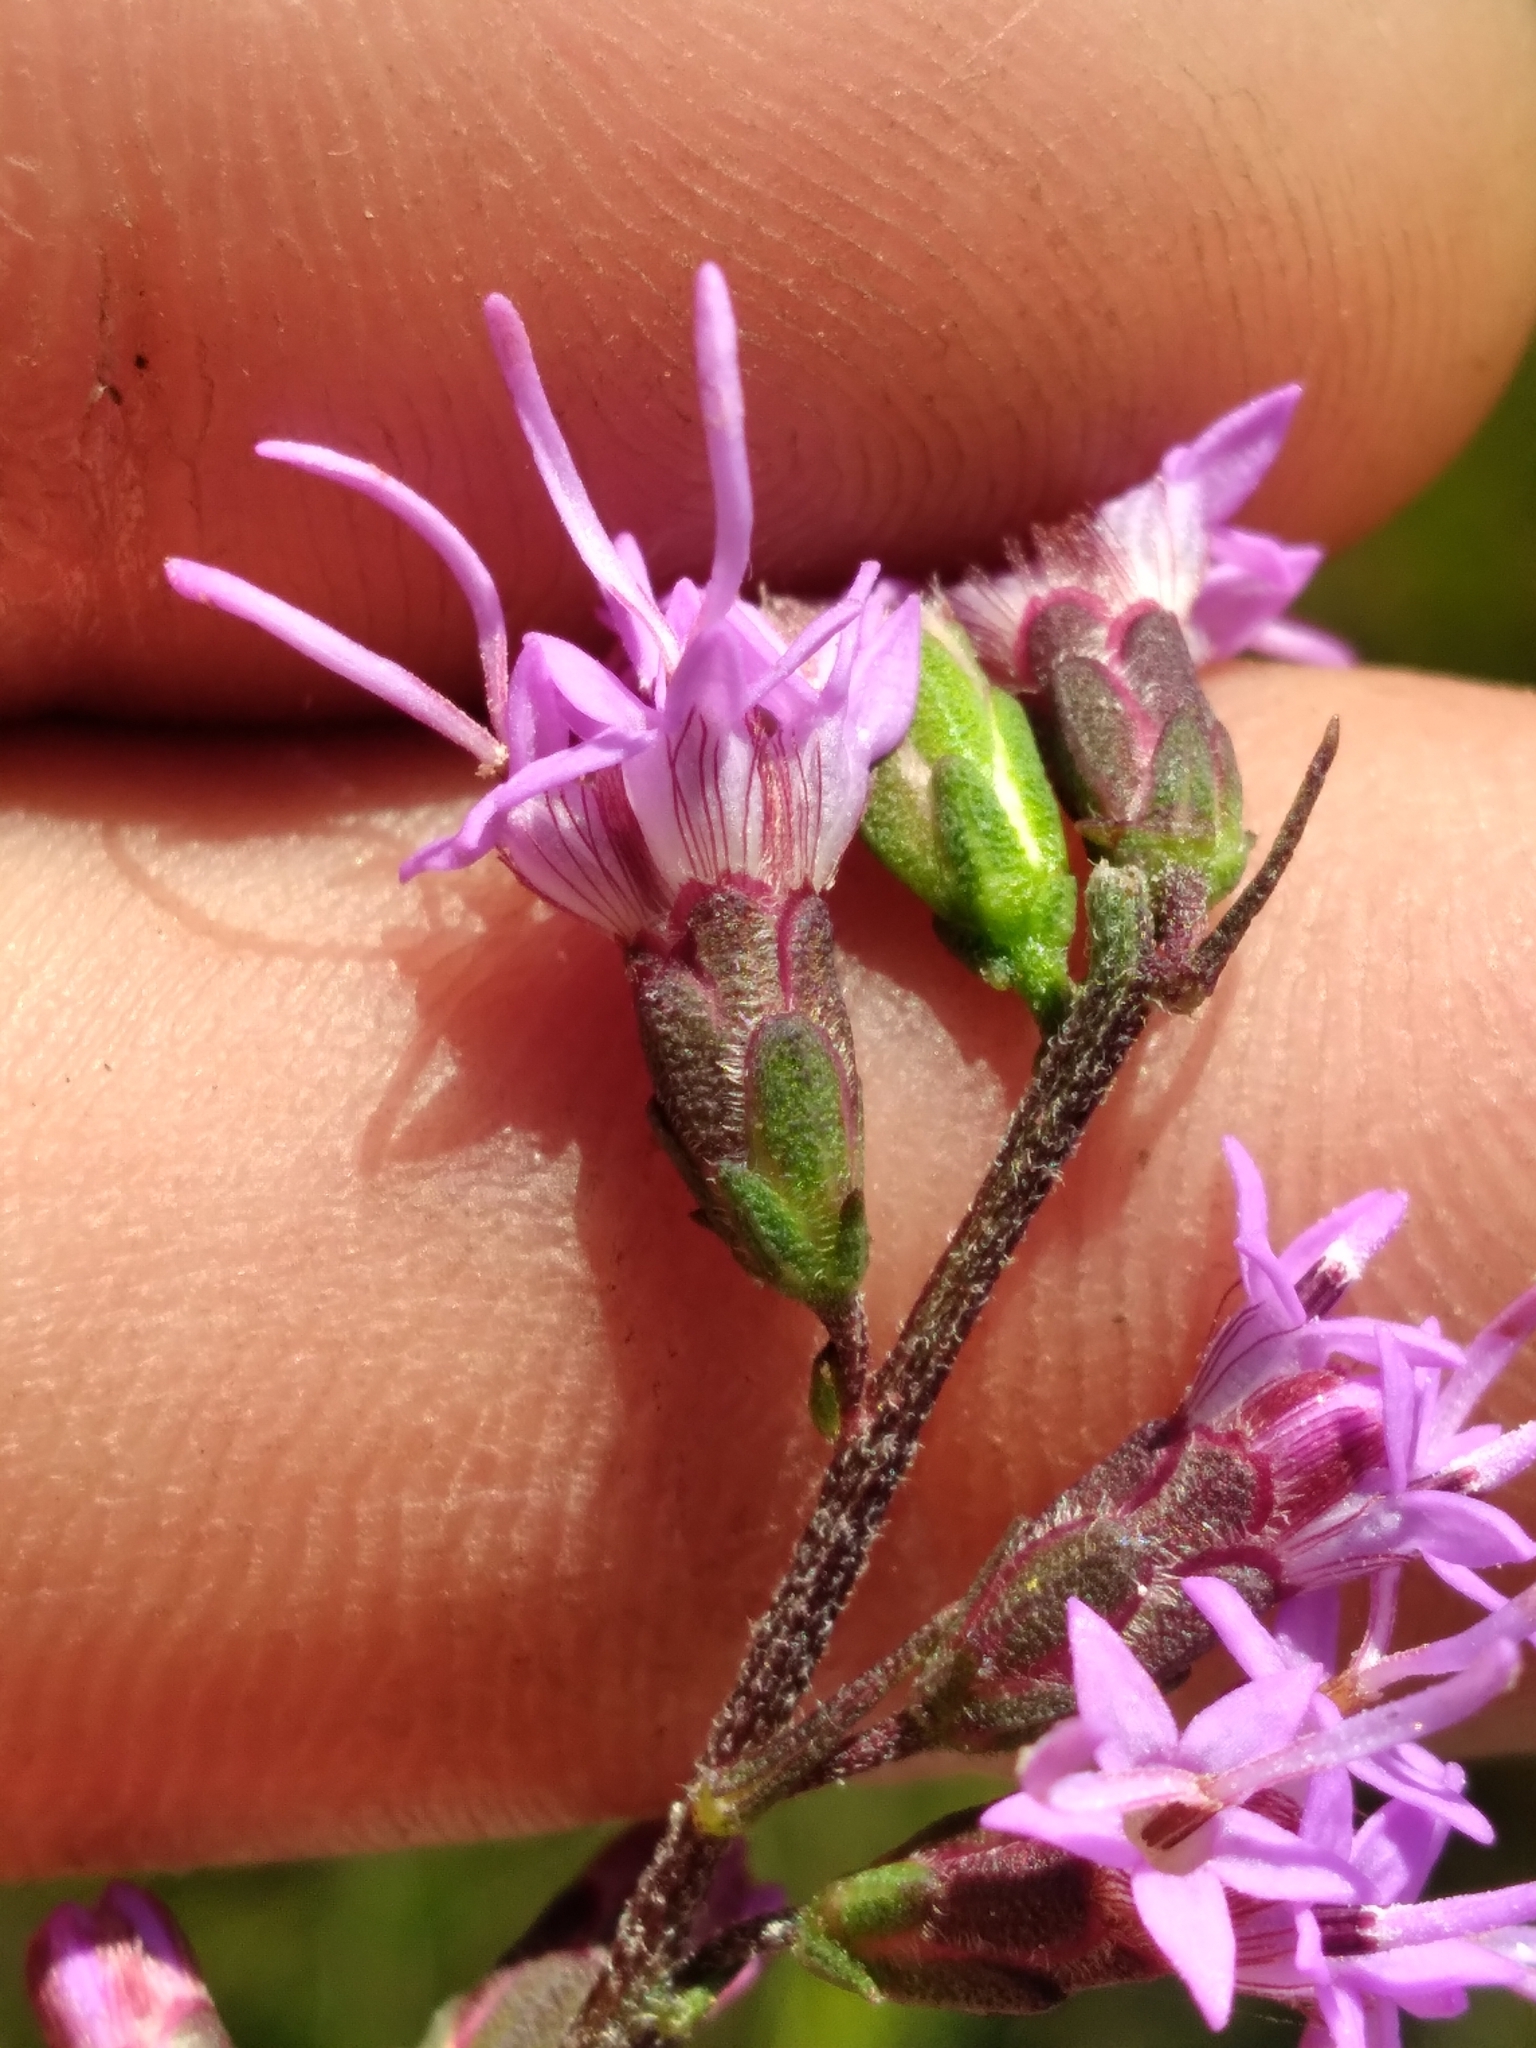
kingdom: Plantae
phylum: Tracheophyta
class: Magnoliopsida
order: Asterales
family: Asteraceae
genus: Liatris
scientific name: Liatris gracilis
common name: Slender gayfeather
